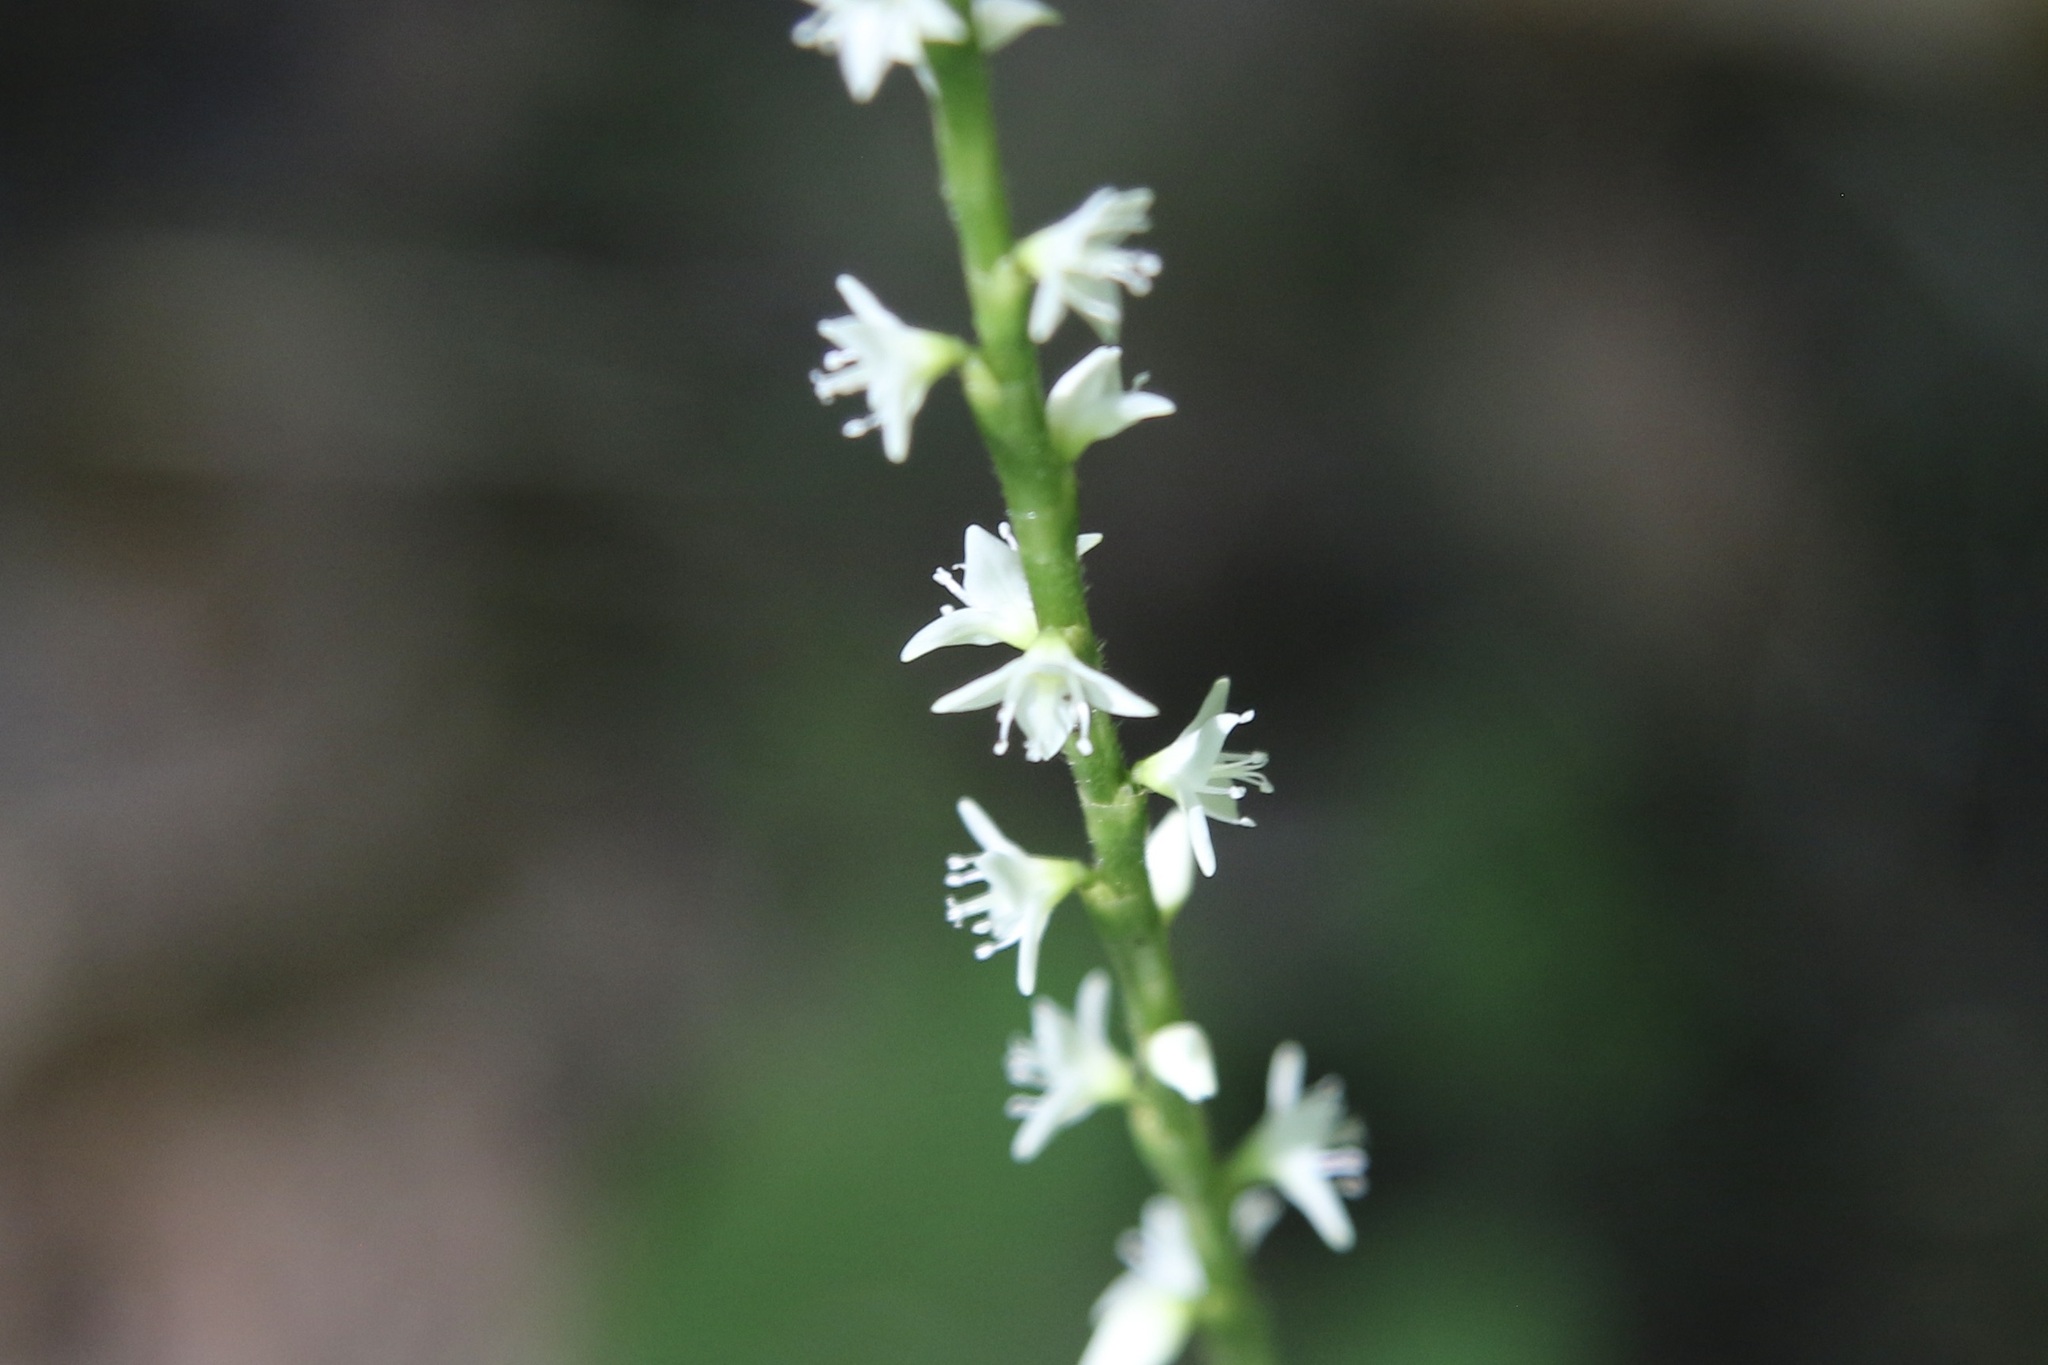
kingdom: Plantae
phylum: Tracheophyta
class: Magnoliopsida
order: Caryophyllales
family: Polygonaceae
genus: Persicaria
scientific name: Persicaria virginiana
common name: Jumpseed
